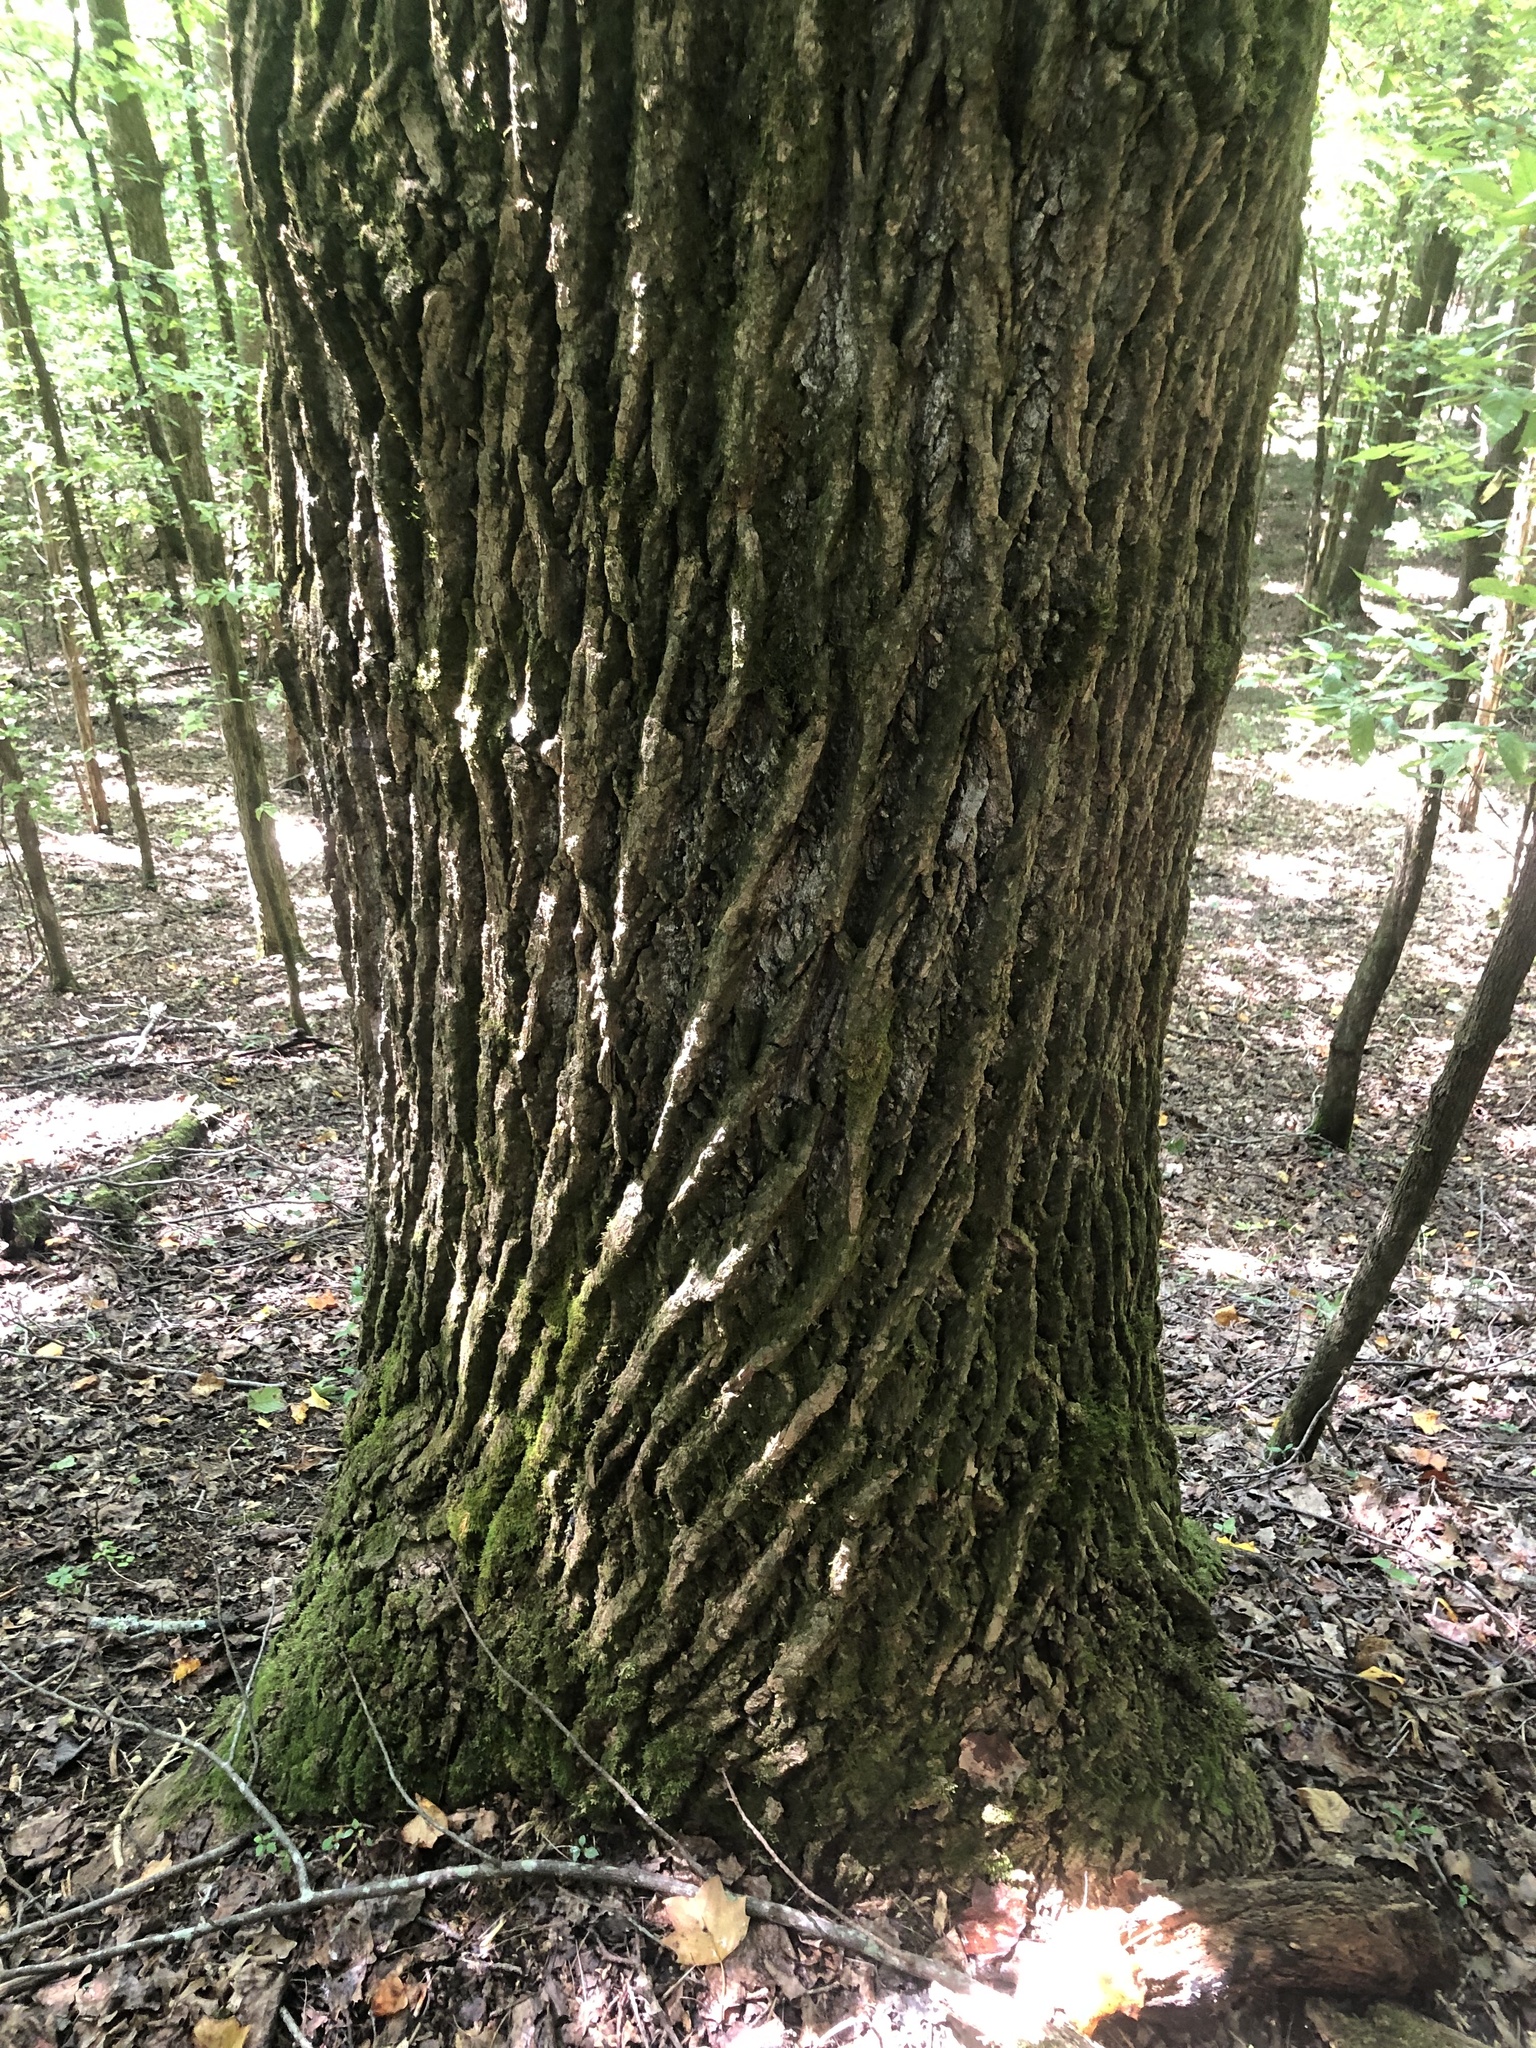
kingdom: Plantae
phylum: Tracheophyta
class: Magnoliopsida
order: Magnoliales
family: Magnoliaceae
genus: Liriodendron
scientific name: Liriodendron tulipifera
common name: Tulip tree
